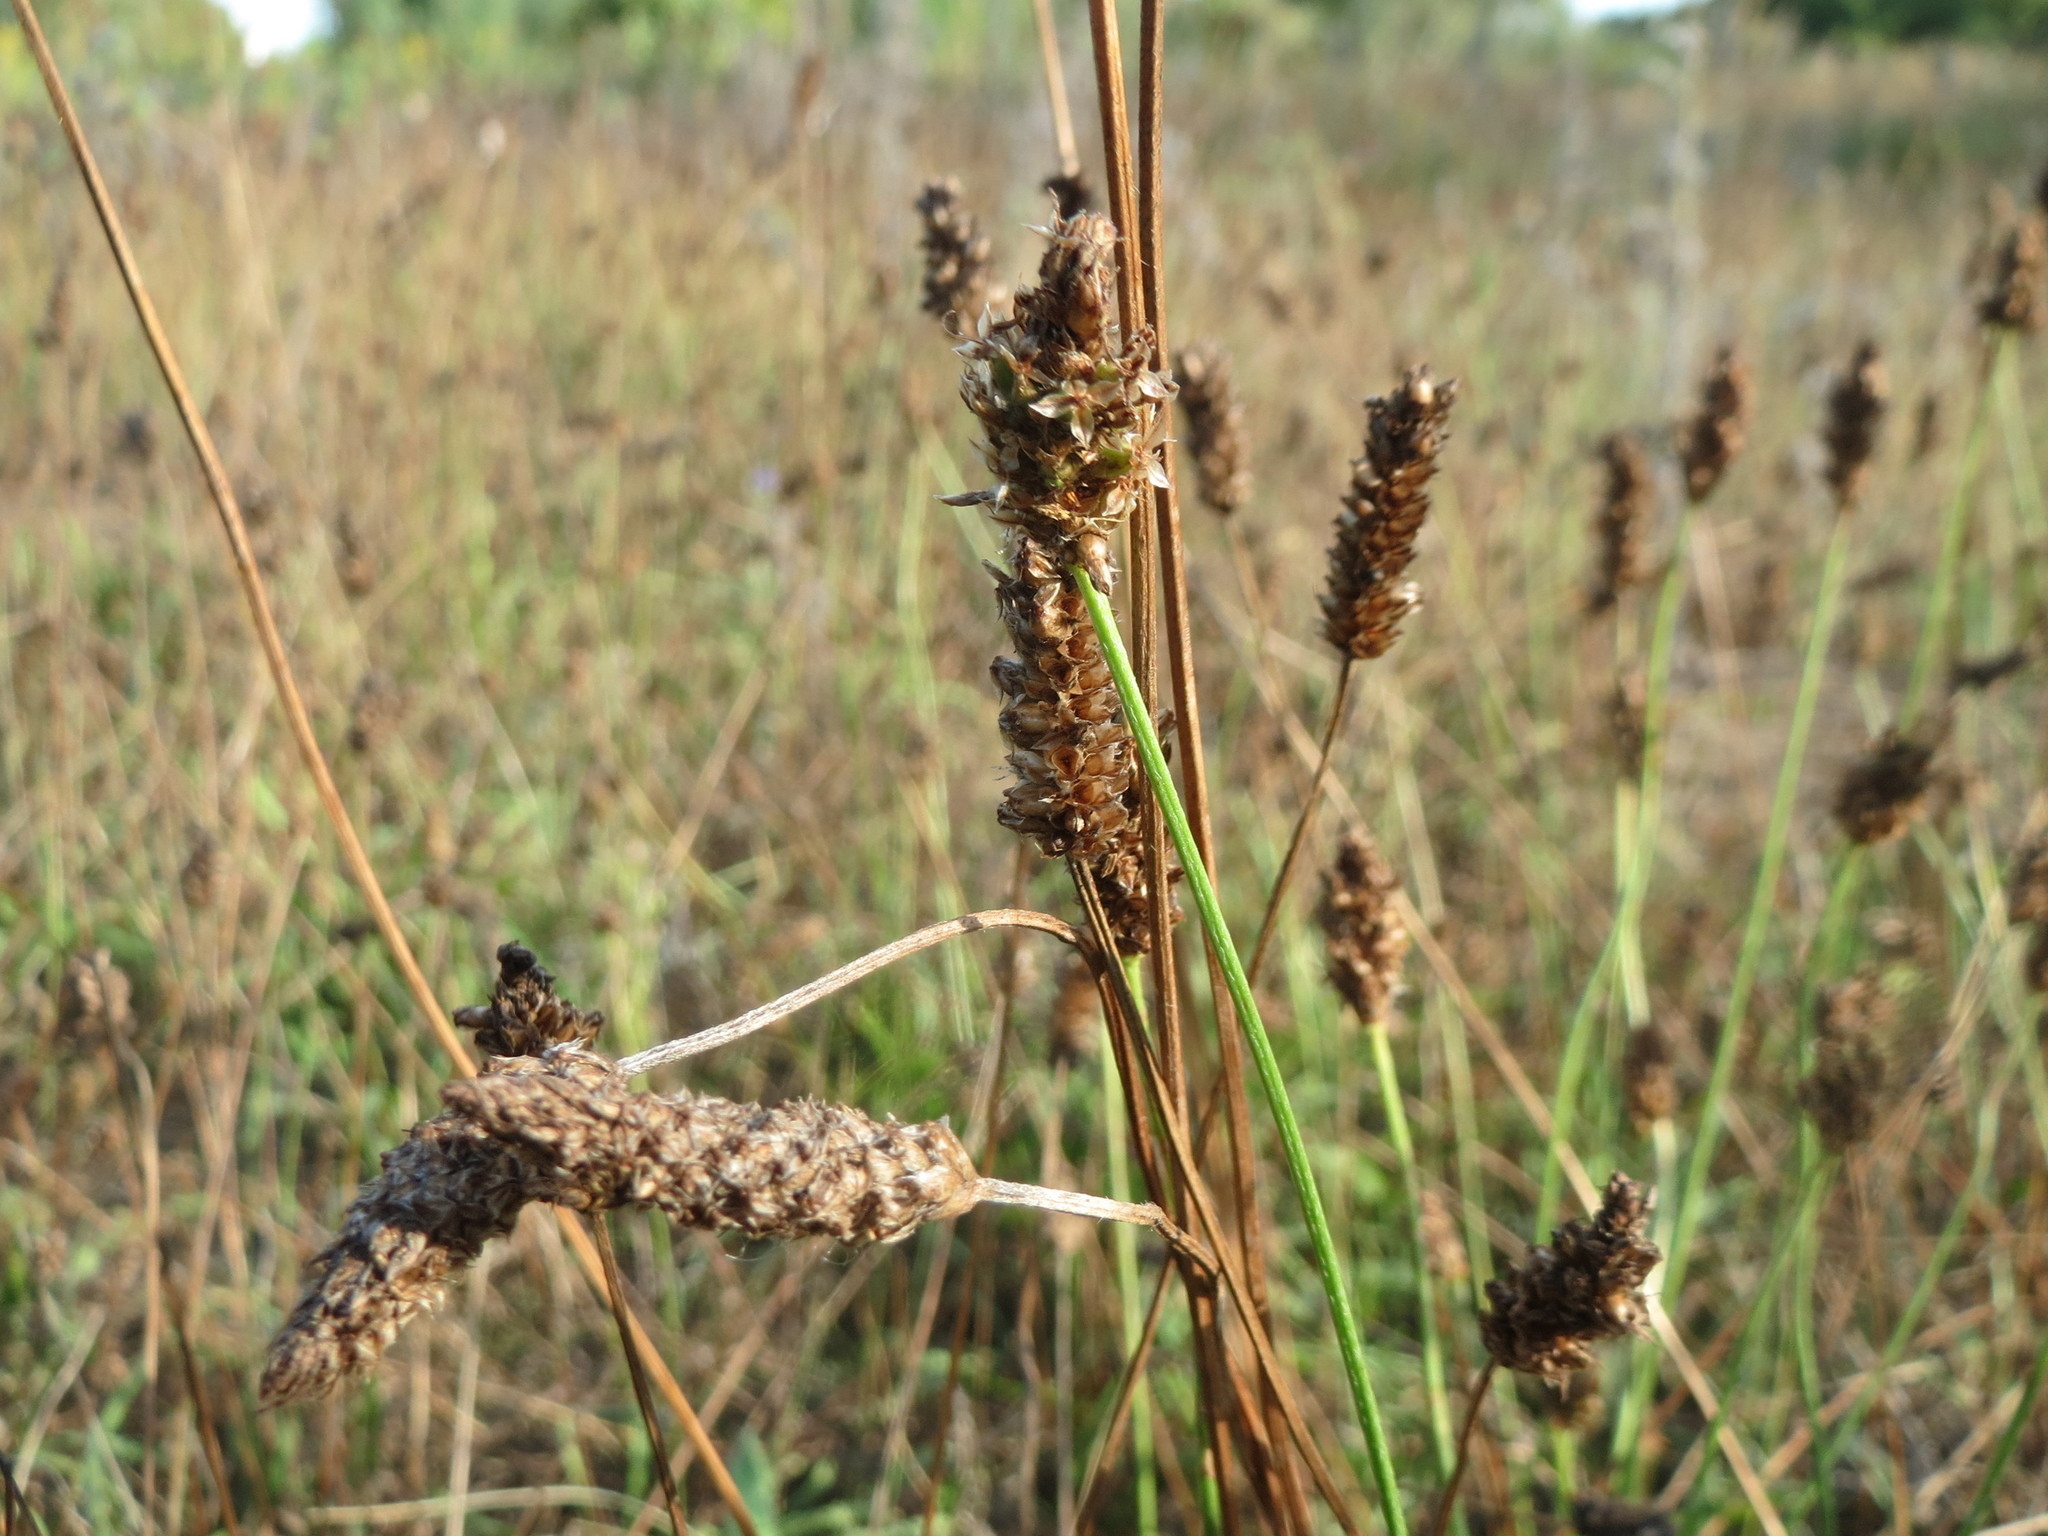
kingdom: Plantae
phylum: Tracheophyta
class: Magnoliopsida
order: Lamiales
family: Plantaginaceae
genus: Plantago
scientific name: Plantago lanceolata
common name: Ribwort plantain
